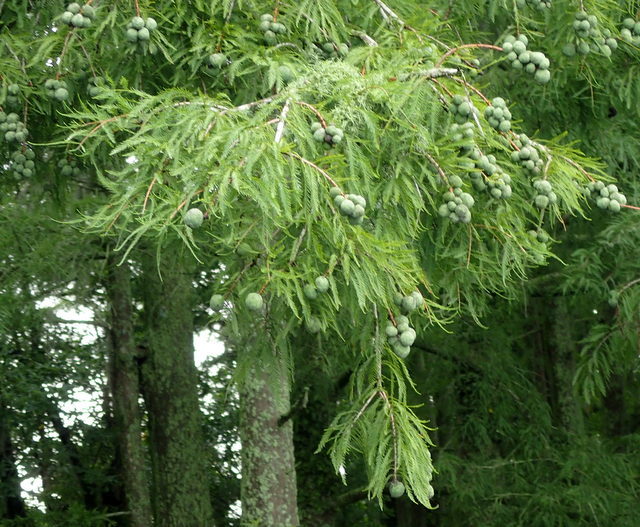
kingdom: Plantae
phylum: Tracheophyta
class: Pinopsida
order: Pinales
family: Cupressaceae
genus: Taxodium
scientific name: Taxodium distichum
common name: Bald cypress
